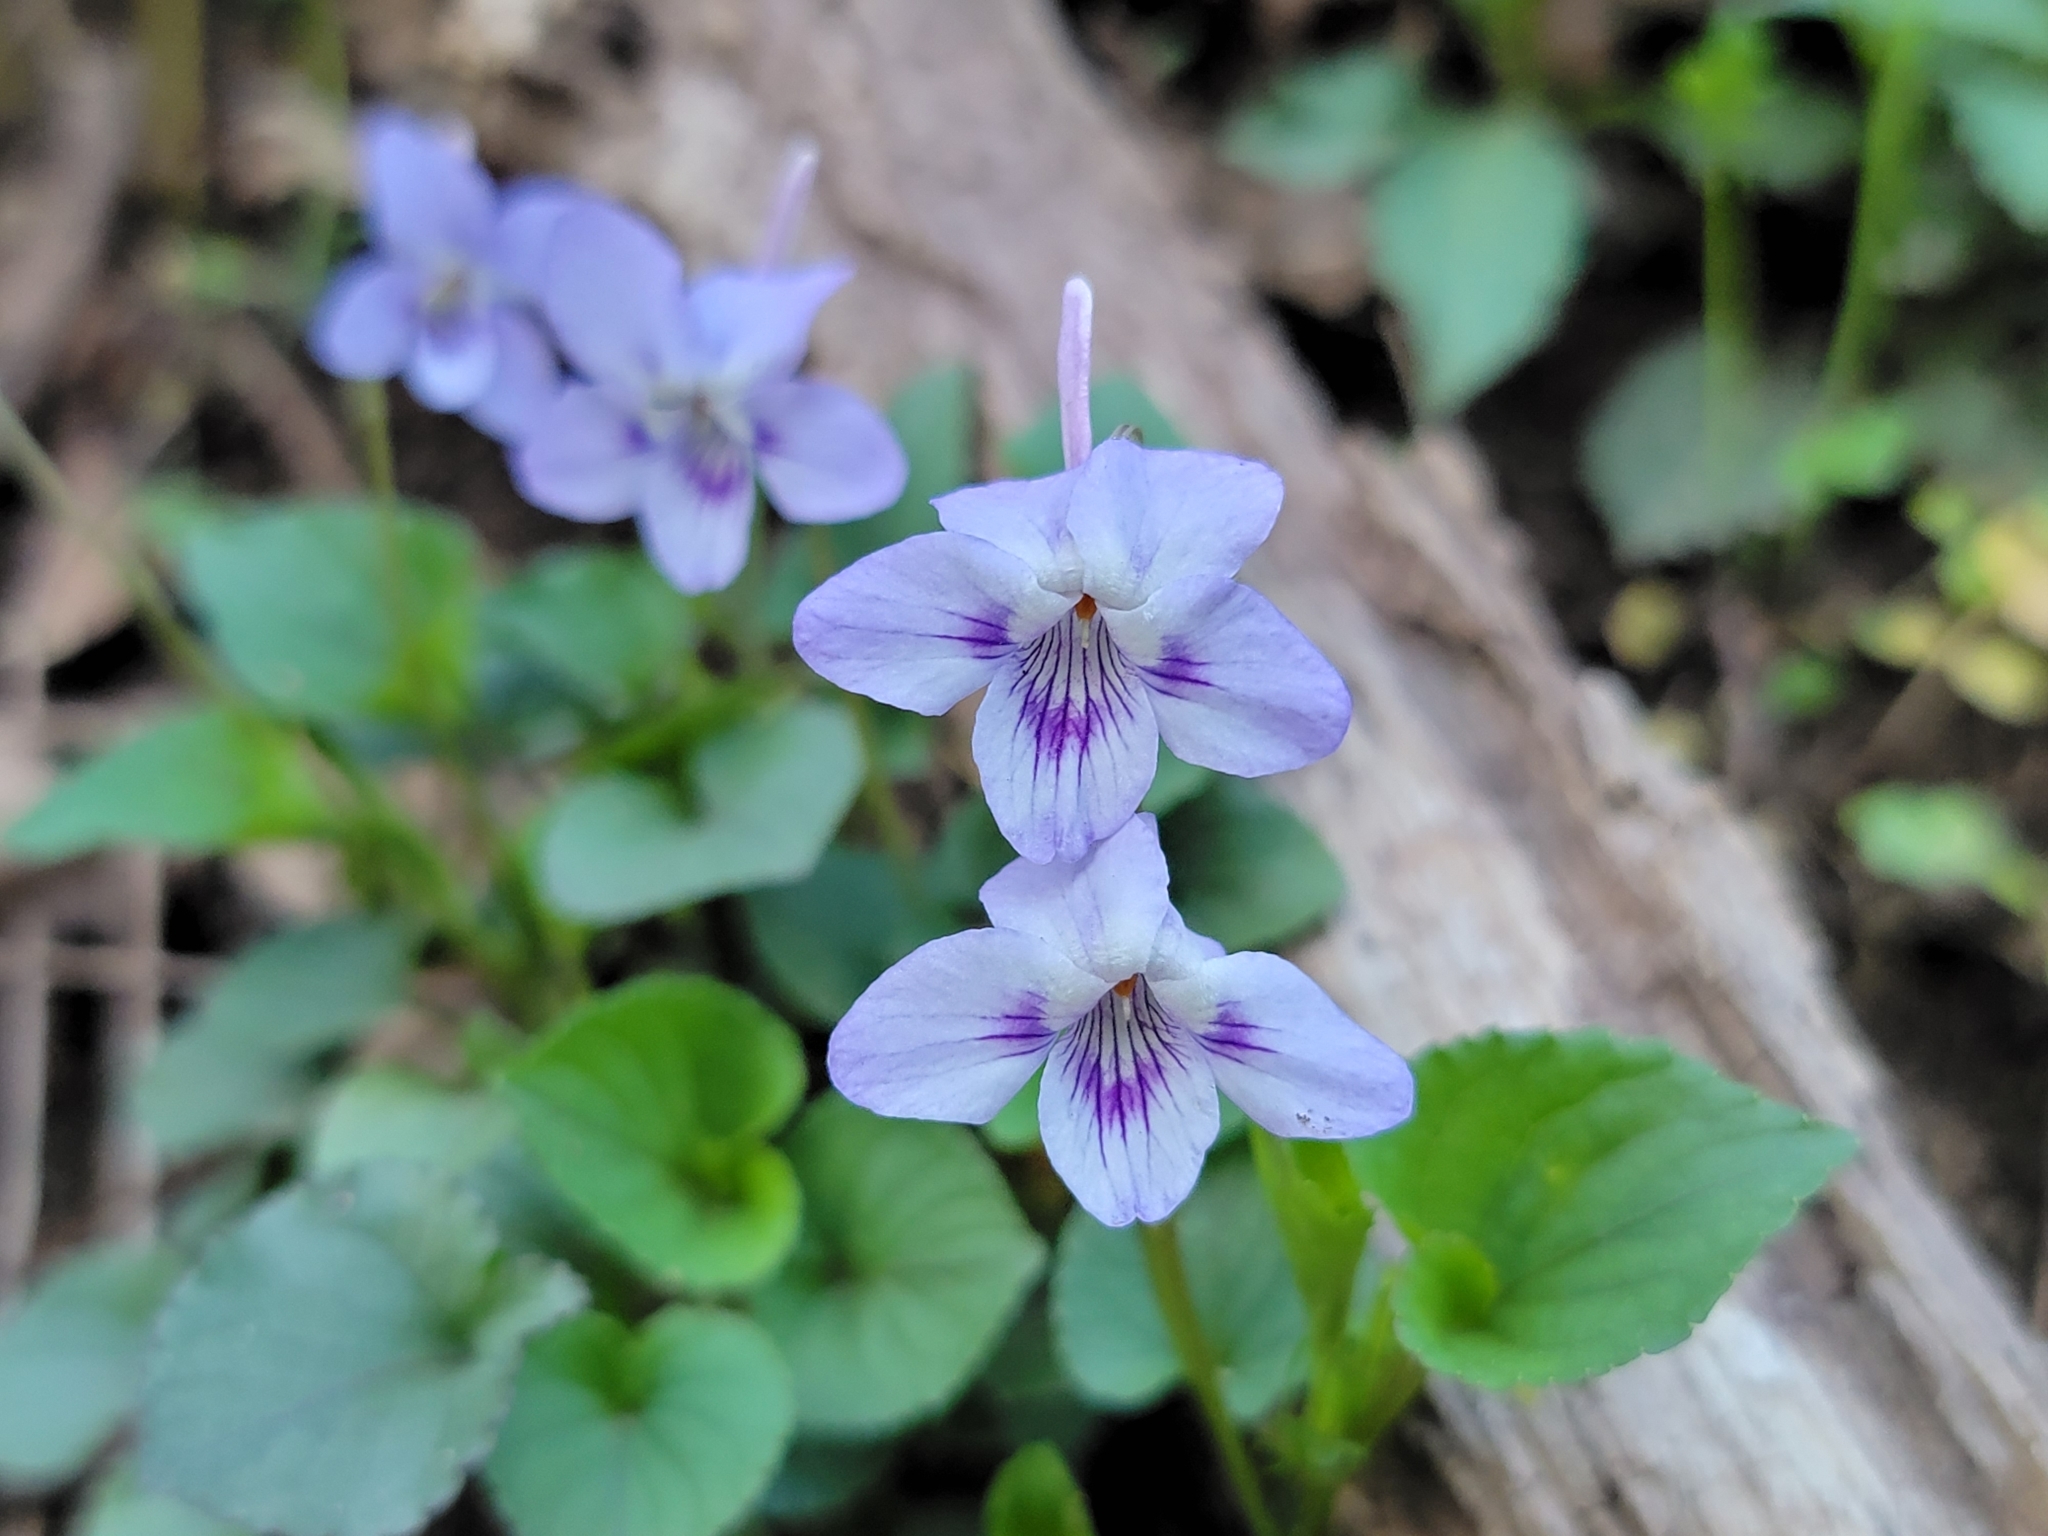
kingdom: Plantae
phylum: Tracheophyta
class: Magnoliopsida
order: Malpighiales
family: Violaceae
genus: Viola
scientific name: Viola rostrata
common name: Long-spur violet
